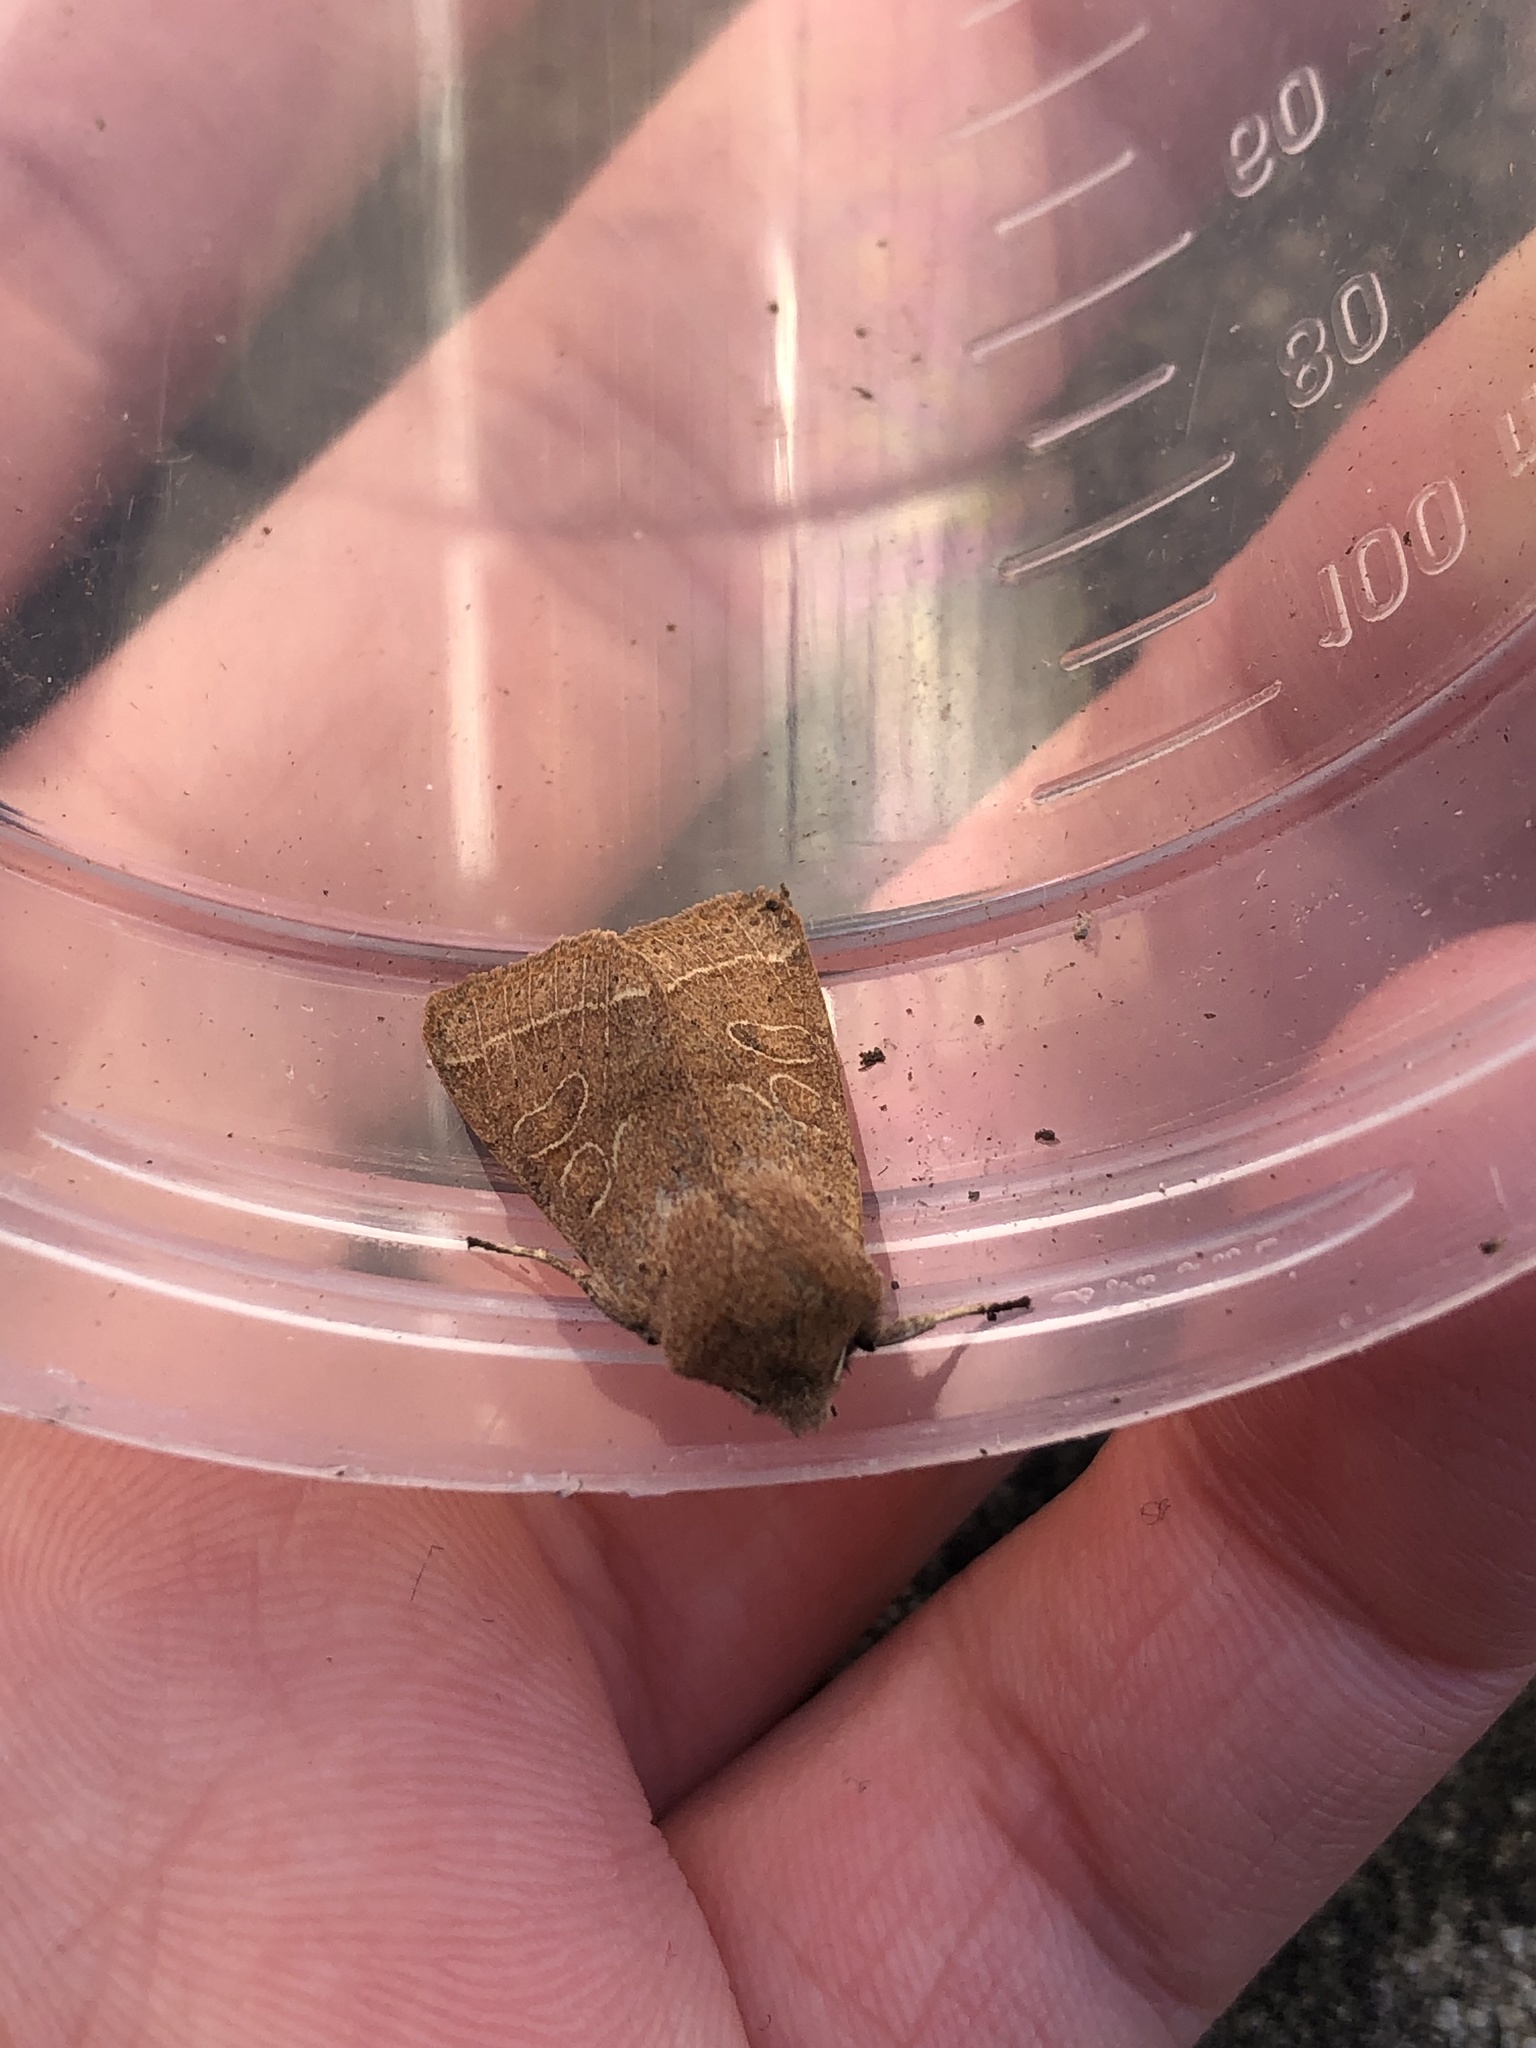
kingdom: Animalia
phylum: Arthropoda
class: Insecta
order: Lepidoptera
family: Noctuidae
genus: Orthosia
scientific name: Orthosia cerasi
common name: Common quaker
